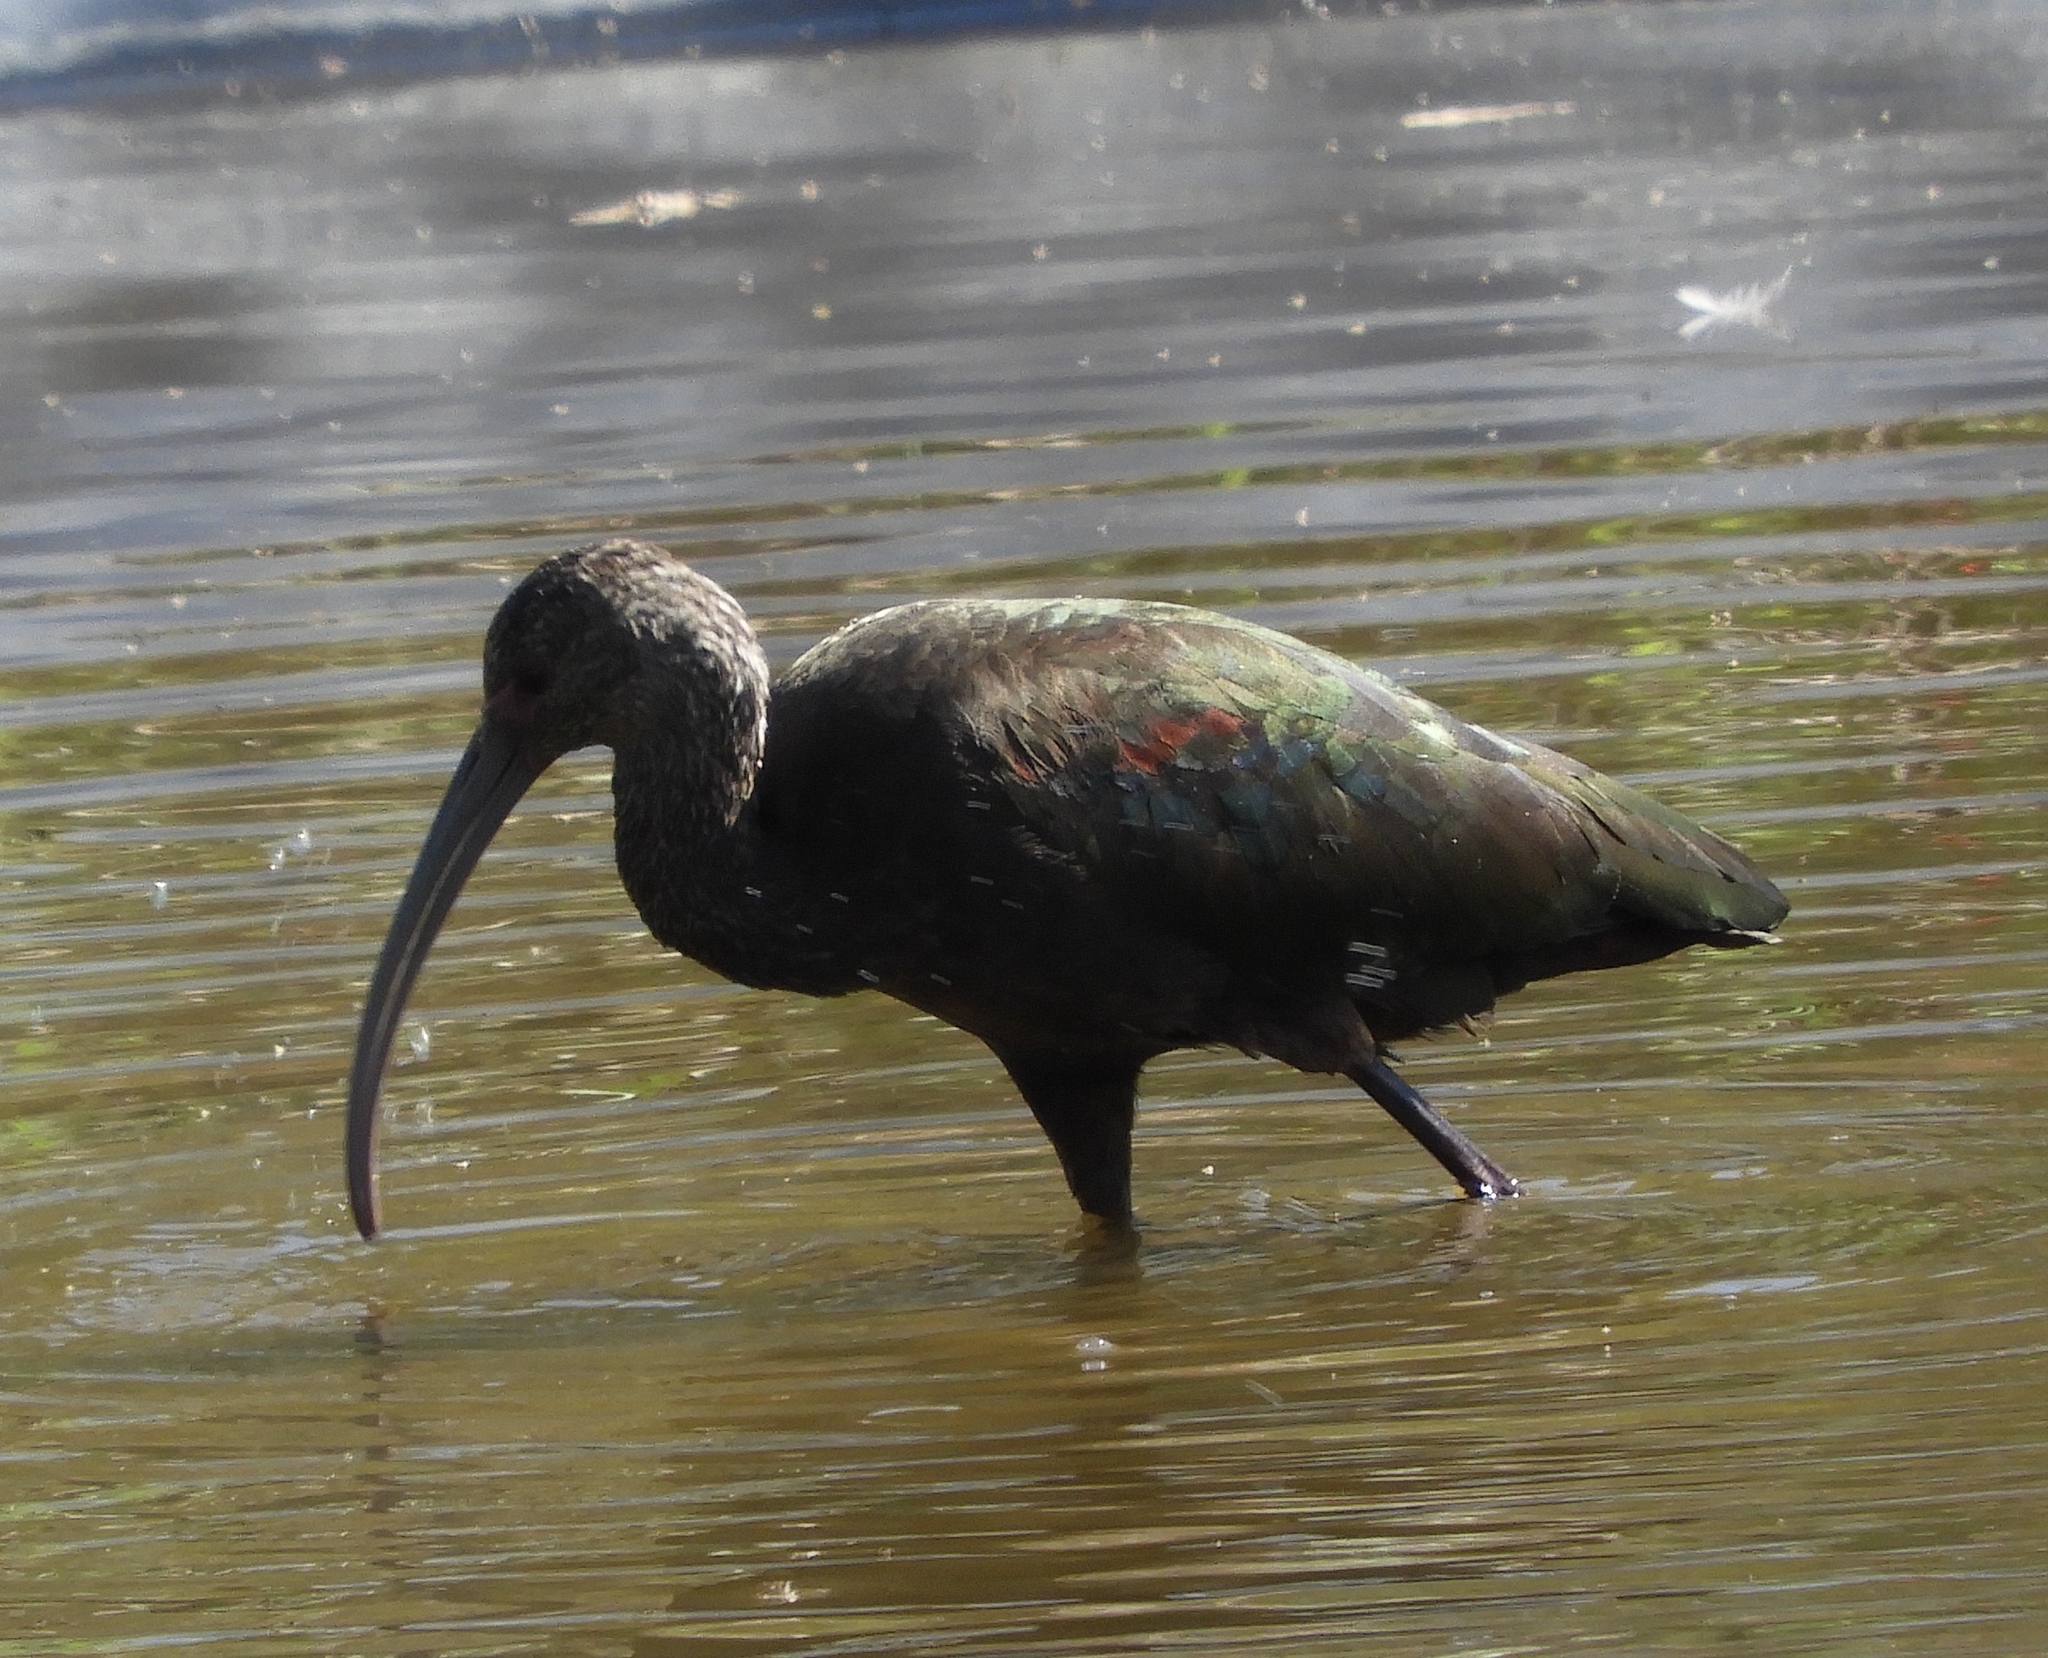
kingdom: Animalia
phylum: Chordata
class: Aves
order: Pelecaniformes
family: Threskiornithidae
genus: Plegadis
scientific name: Plegadis chihi
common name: White-faced ibis
